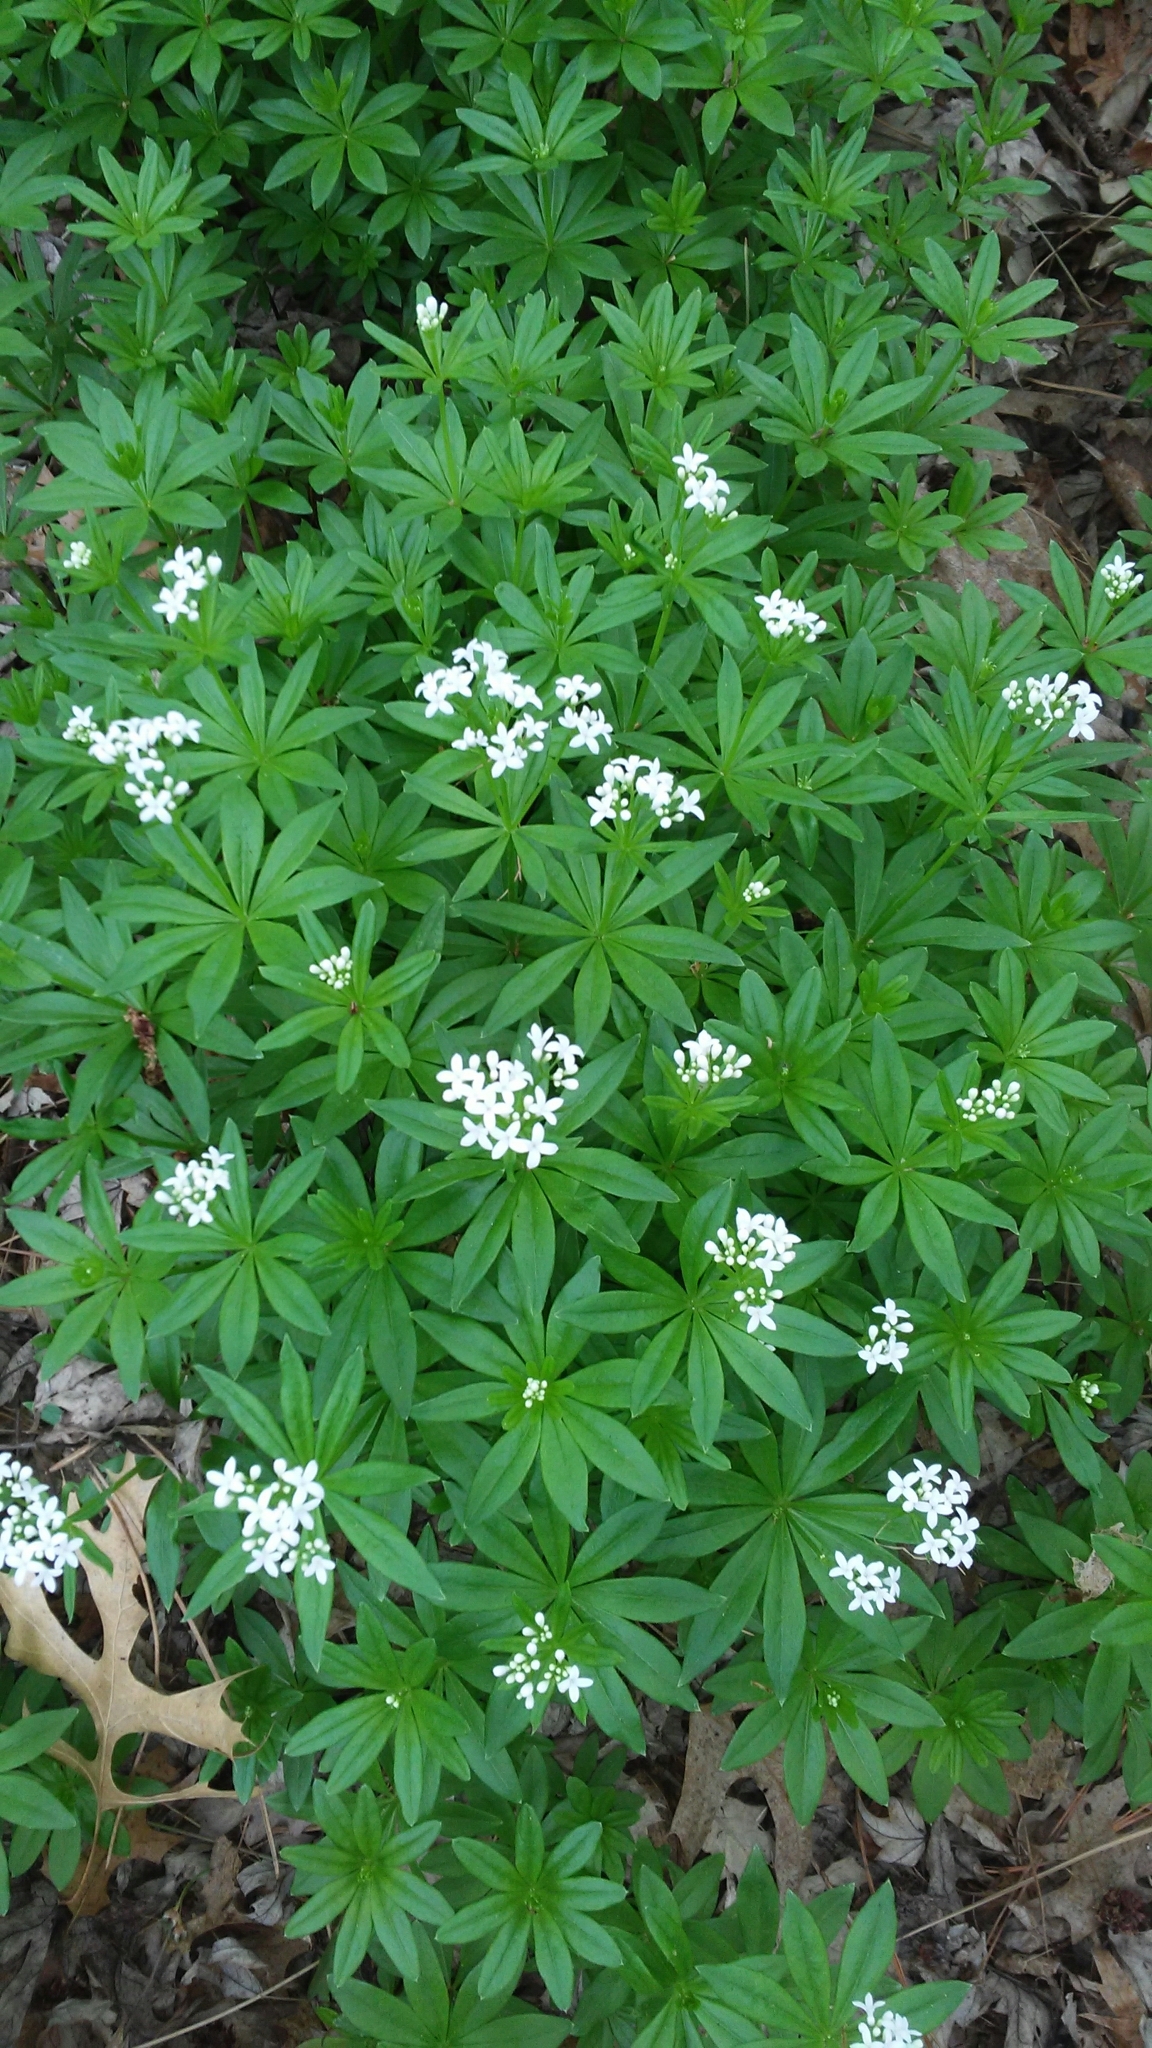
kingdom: Plantae
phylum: Tracheophyta
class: Magnoliopsida
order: Gentianales
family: Rubiaceae
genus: Galium
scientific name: Galium odoratum
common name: Sweet woodruff
